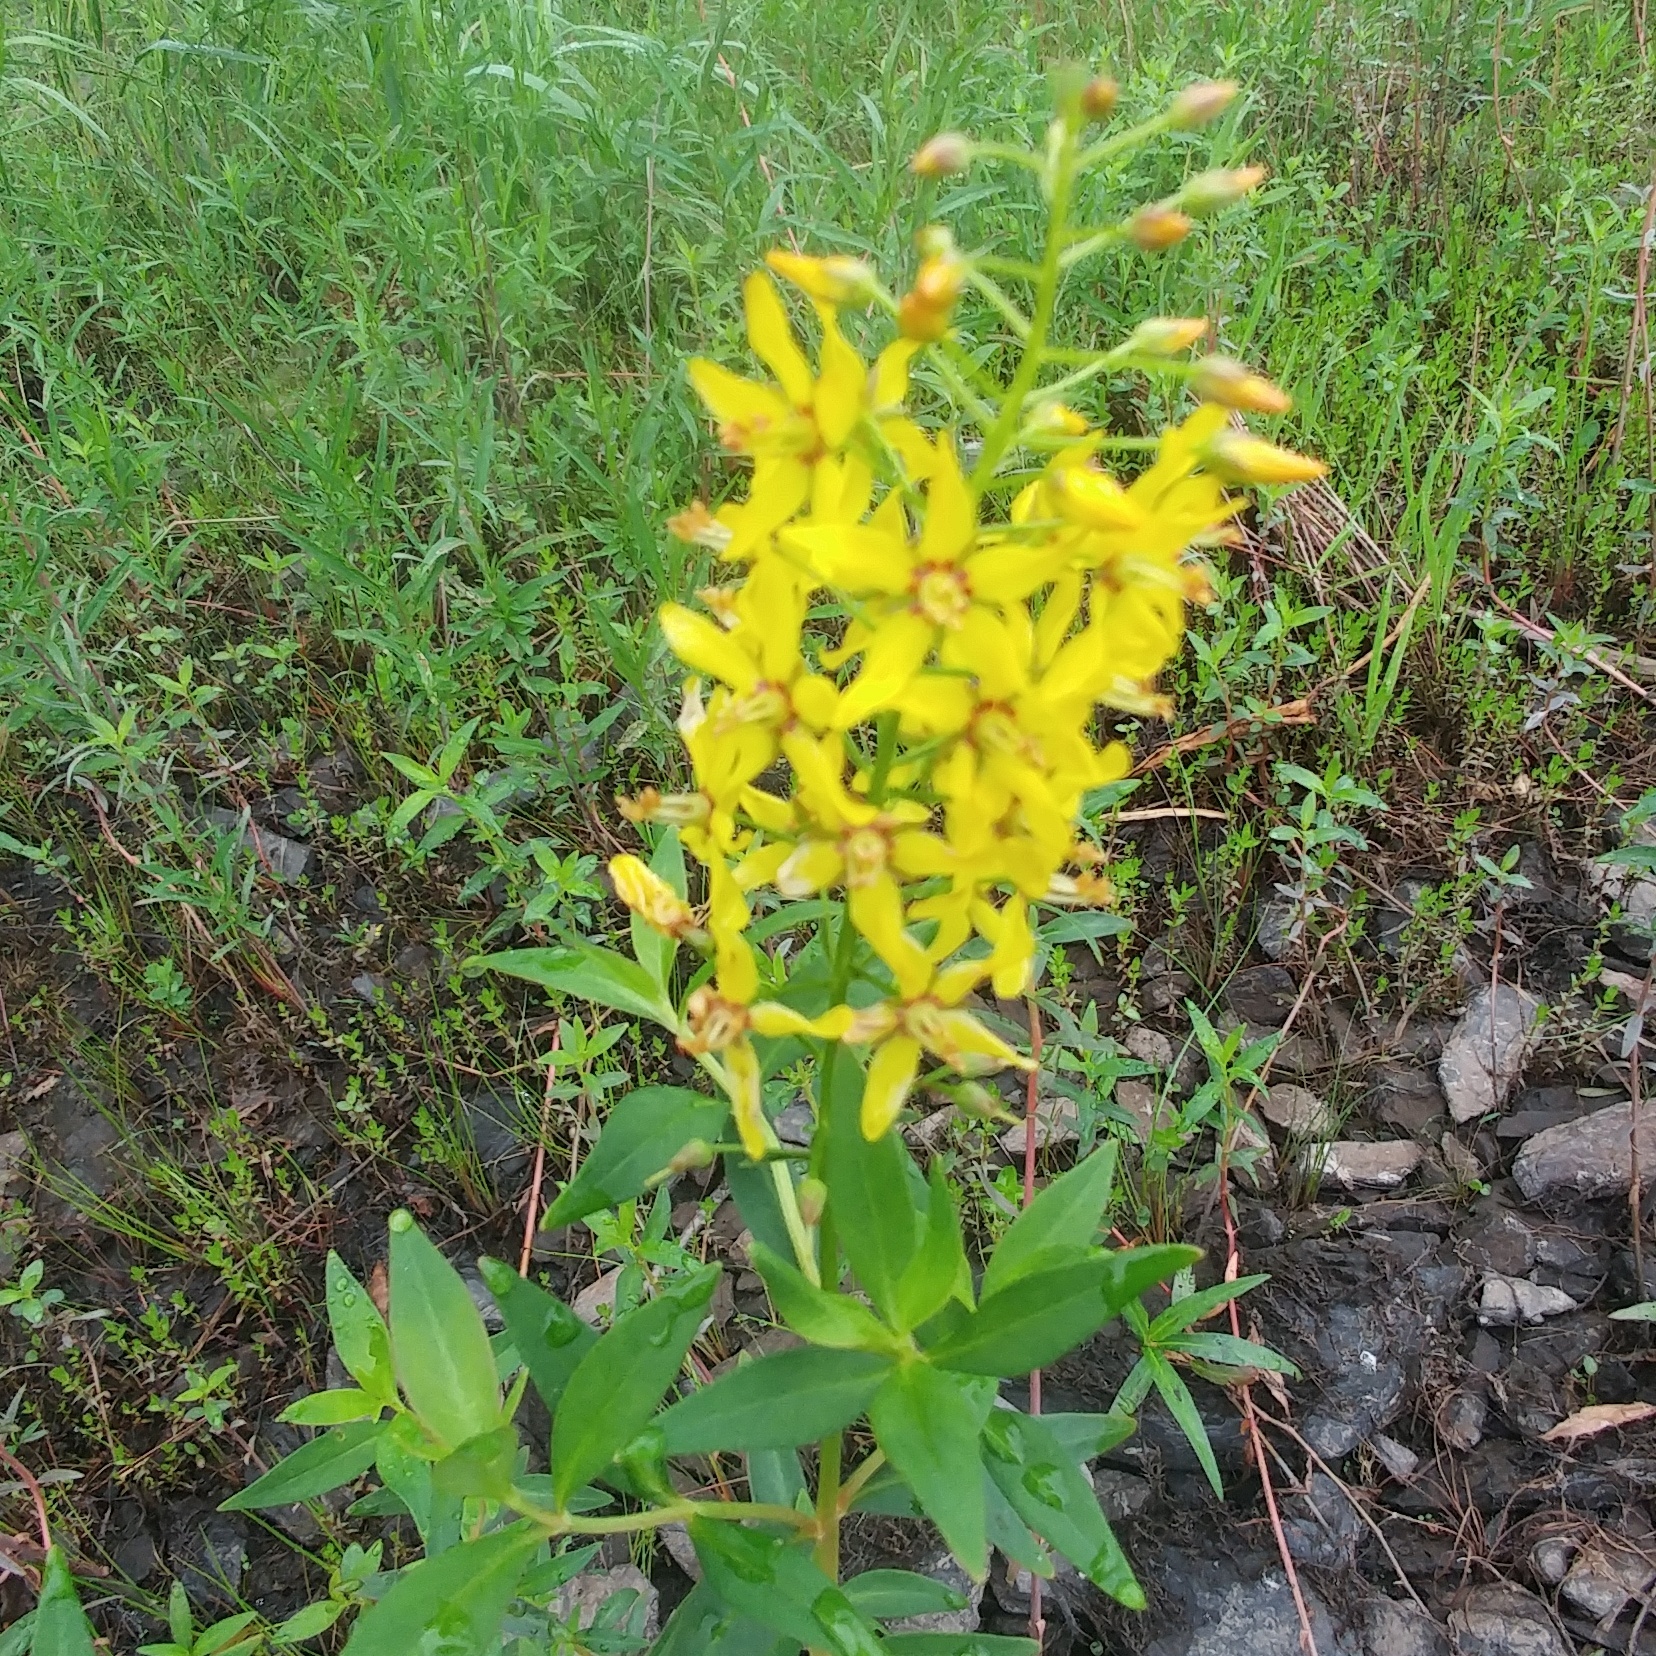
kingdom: Plantae
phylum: Tracheophyta
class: Magnoliopsida
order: Ericales
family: Primulaceae
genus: Lysimachia
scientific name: Lysimachia terrestris
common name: Lake loosestrife
